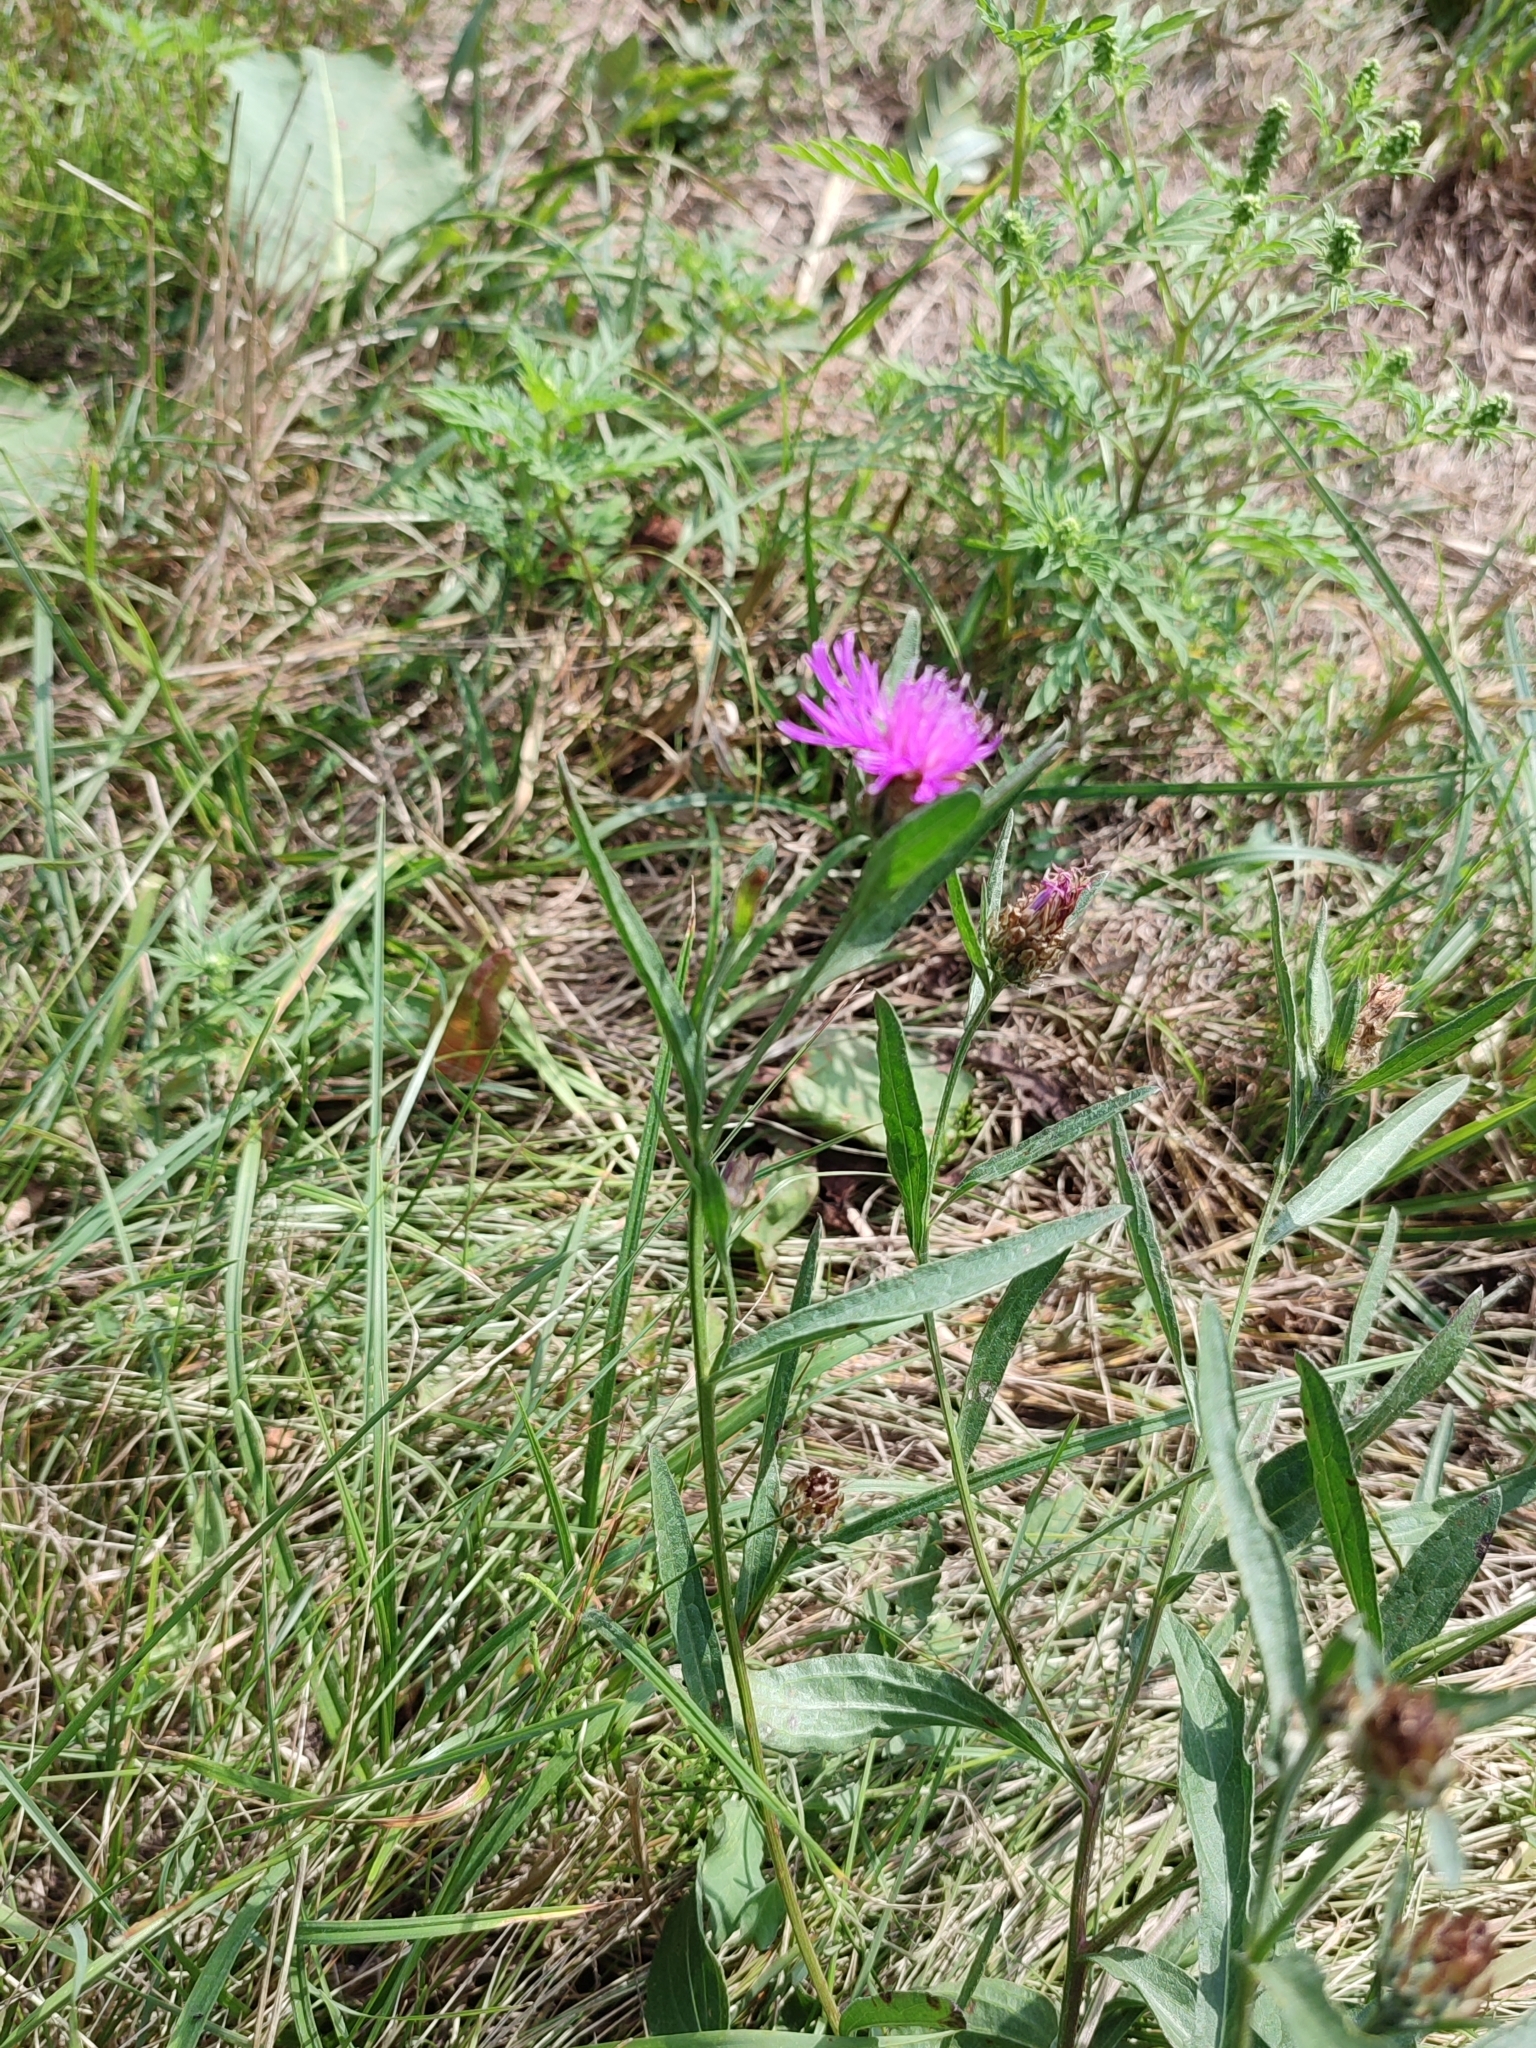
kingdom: Plantae
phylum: Tracheophyta
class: Magnoliopsida
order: Asterales
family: Asteraceae
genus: Centaurea
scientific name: Centaurea jacea
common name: Brown knapweed
